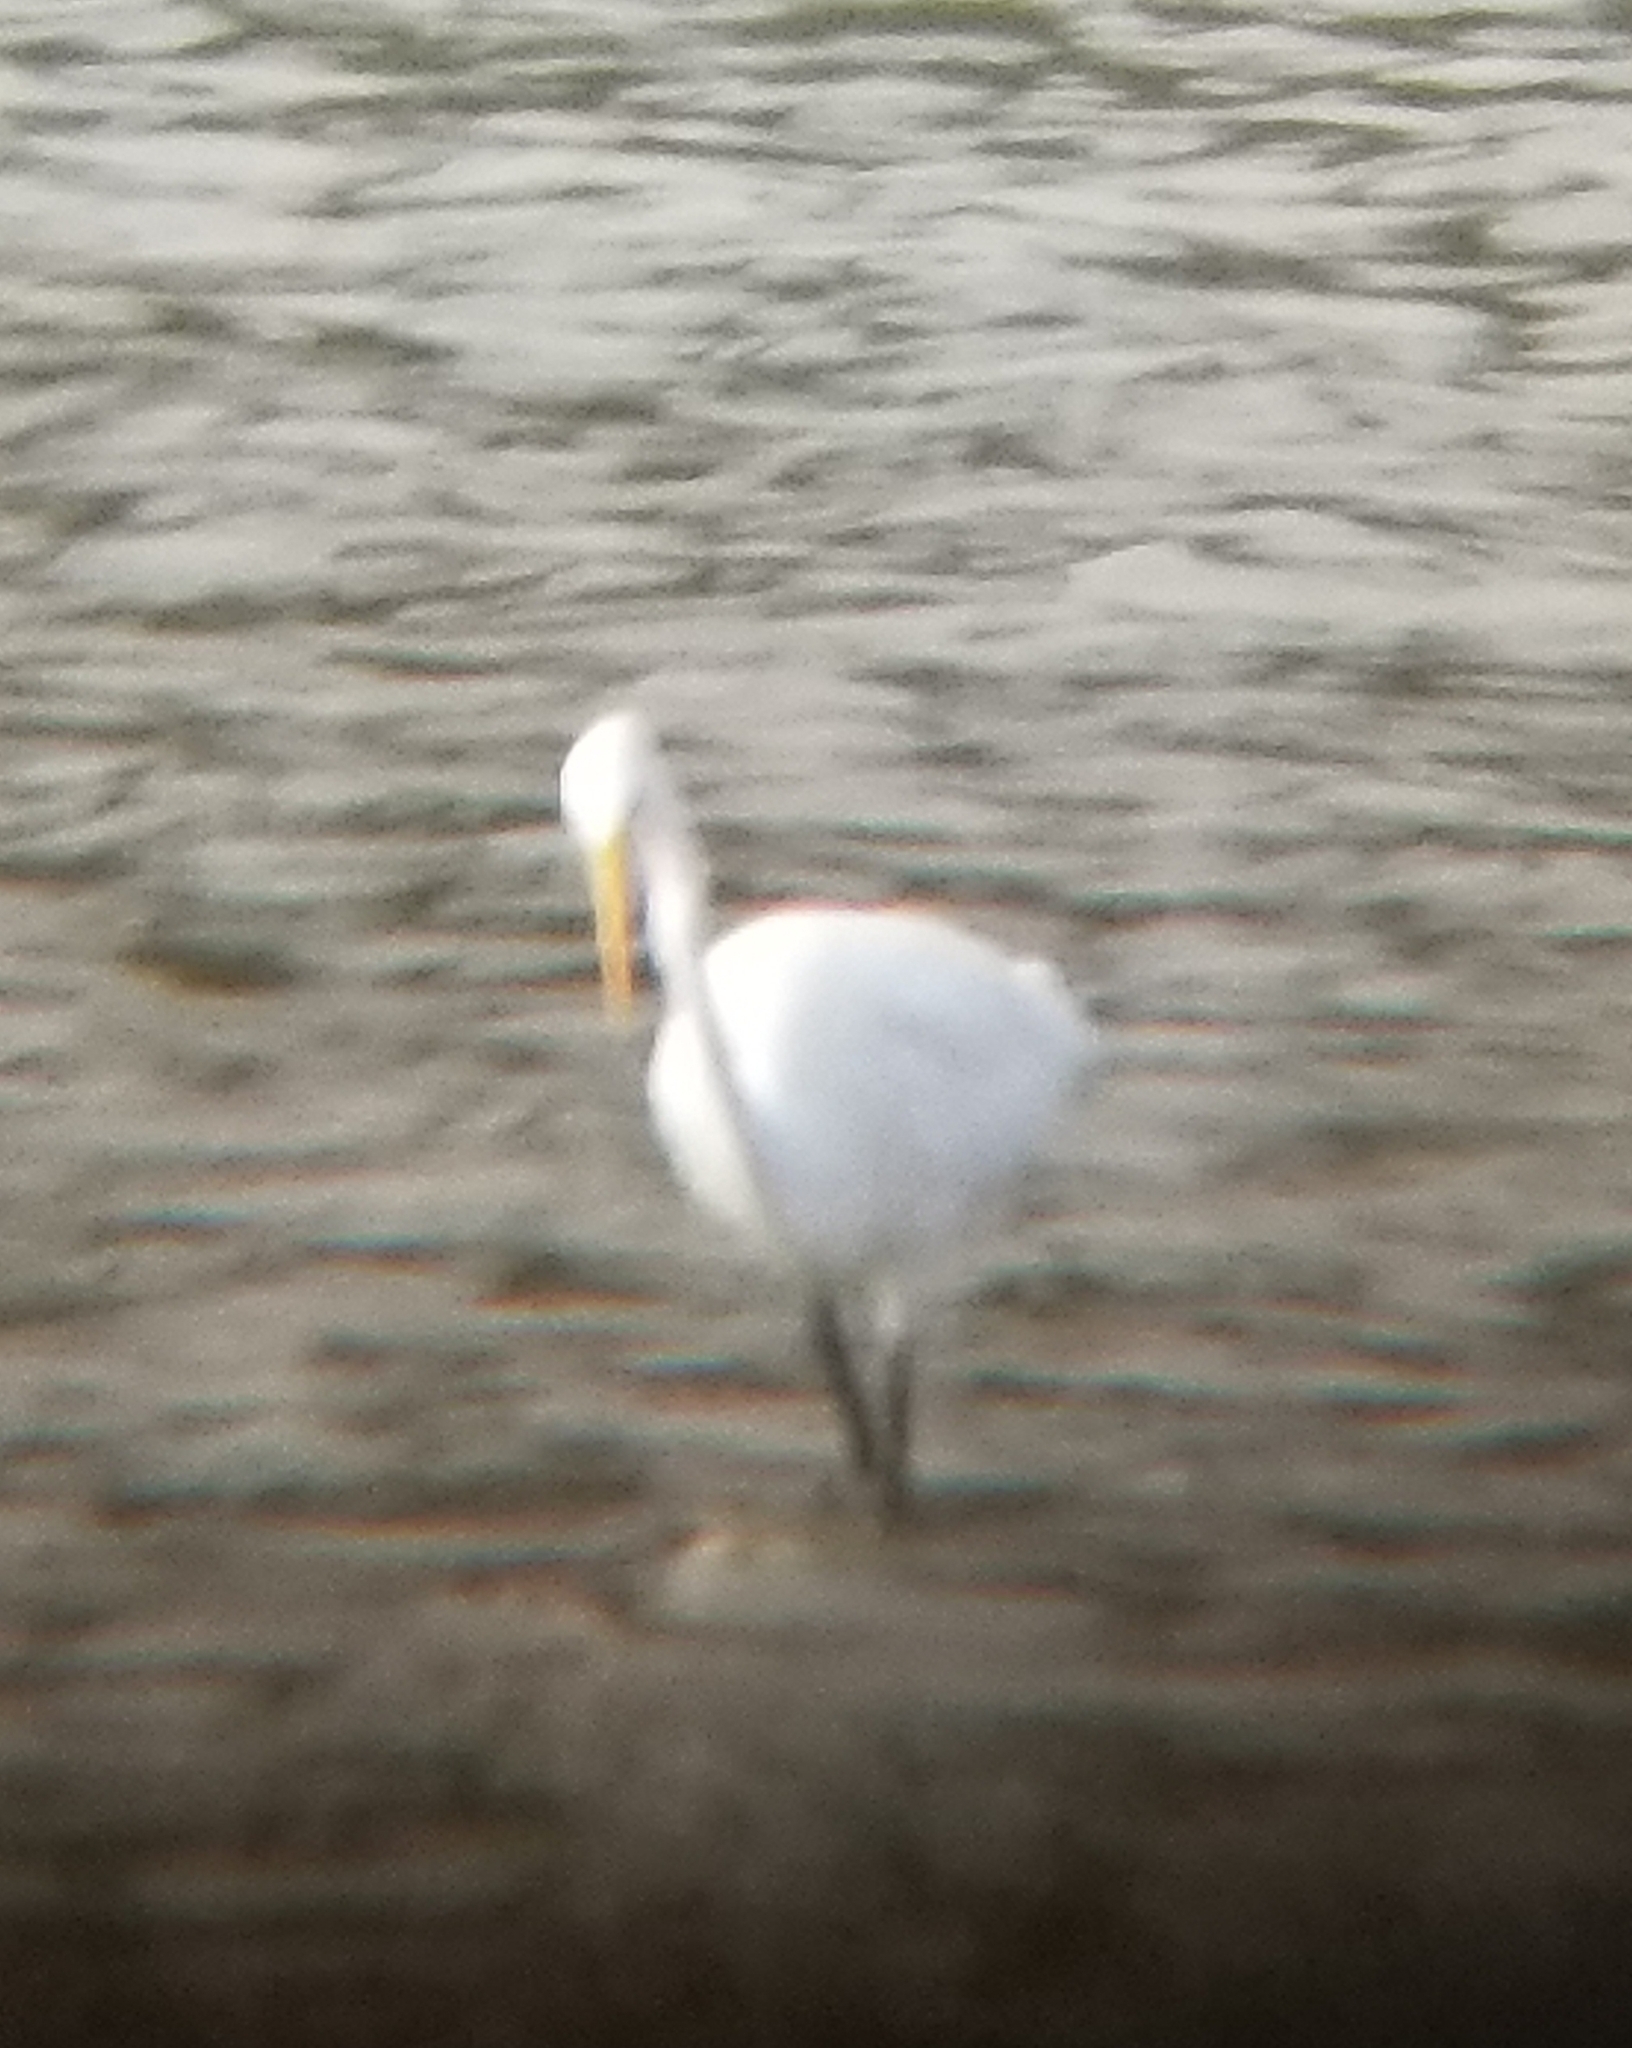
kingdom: Animalia
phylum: Chordata
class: Aves
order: Pelecaniformes
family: Ardeidae
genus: Ardea
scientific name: Ardea alba
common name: Great egret
